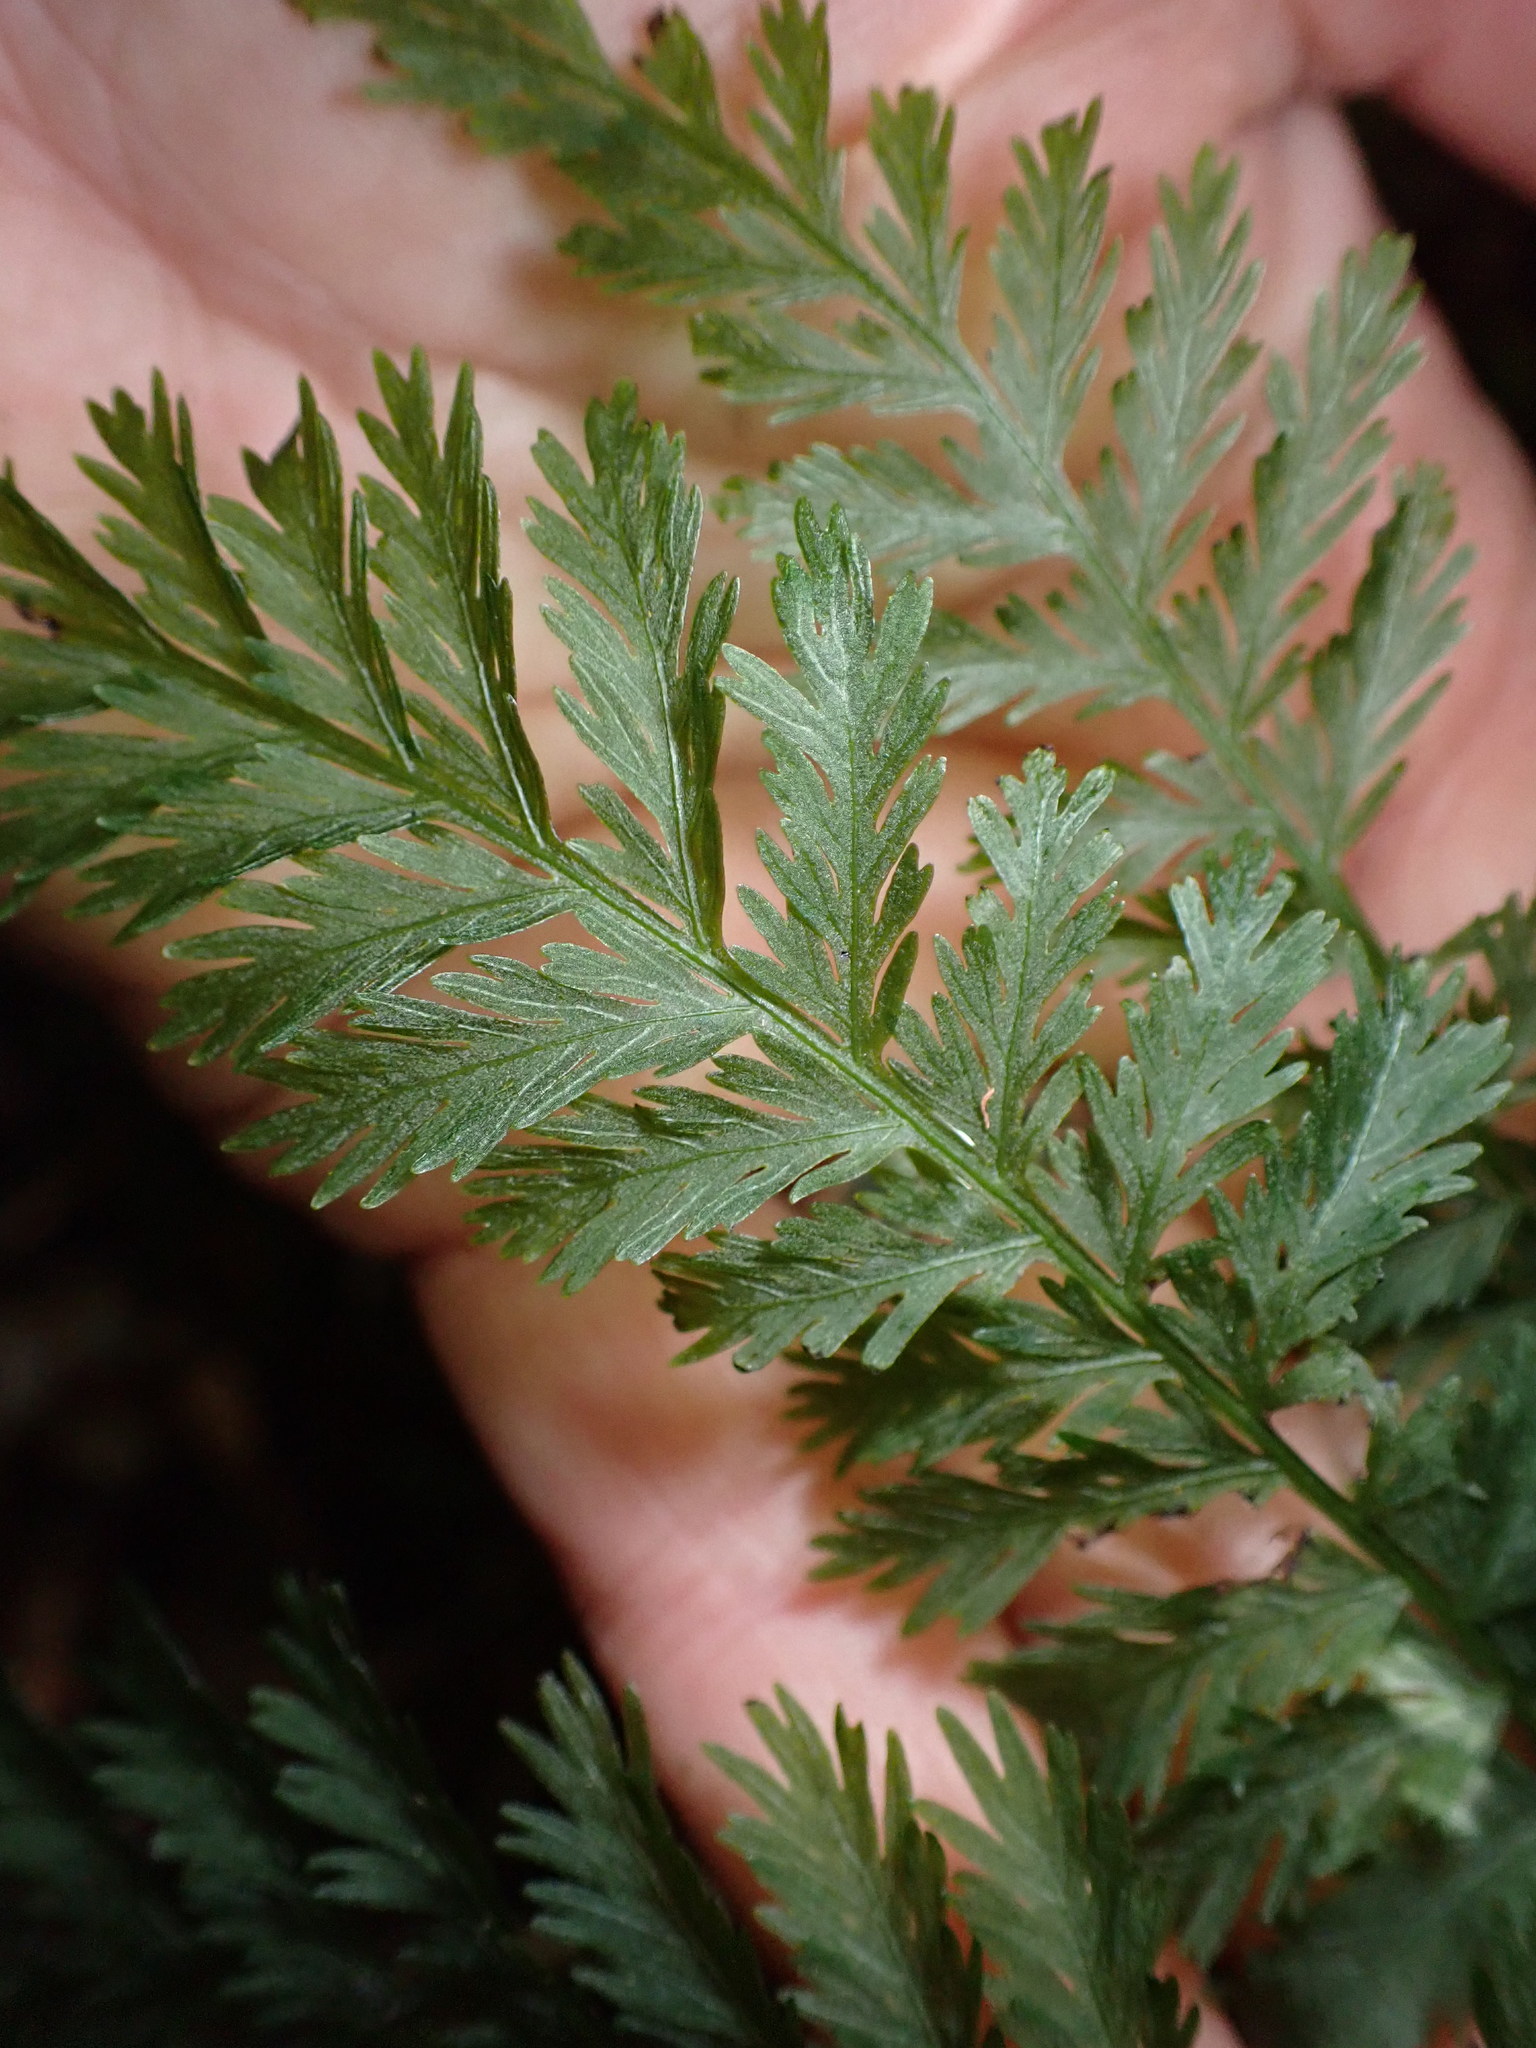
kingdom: Plantae
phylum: Tracheophyta
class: Polypodiopsida
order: Osmundales
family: Osmundaceae
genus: Leptopteris
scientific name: Leptopteris hymenophylloides
